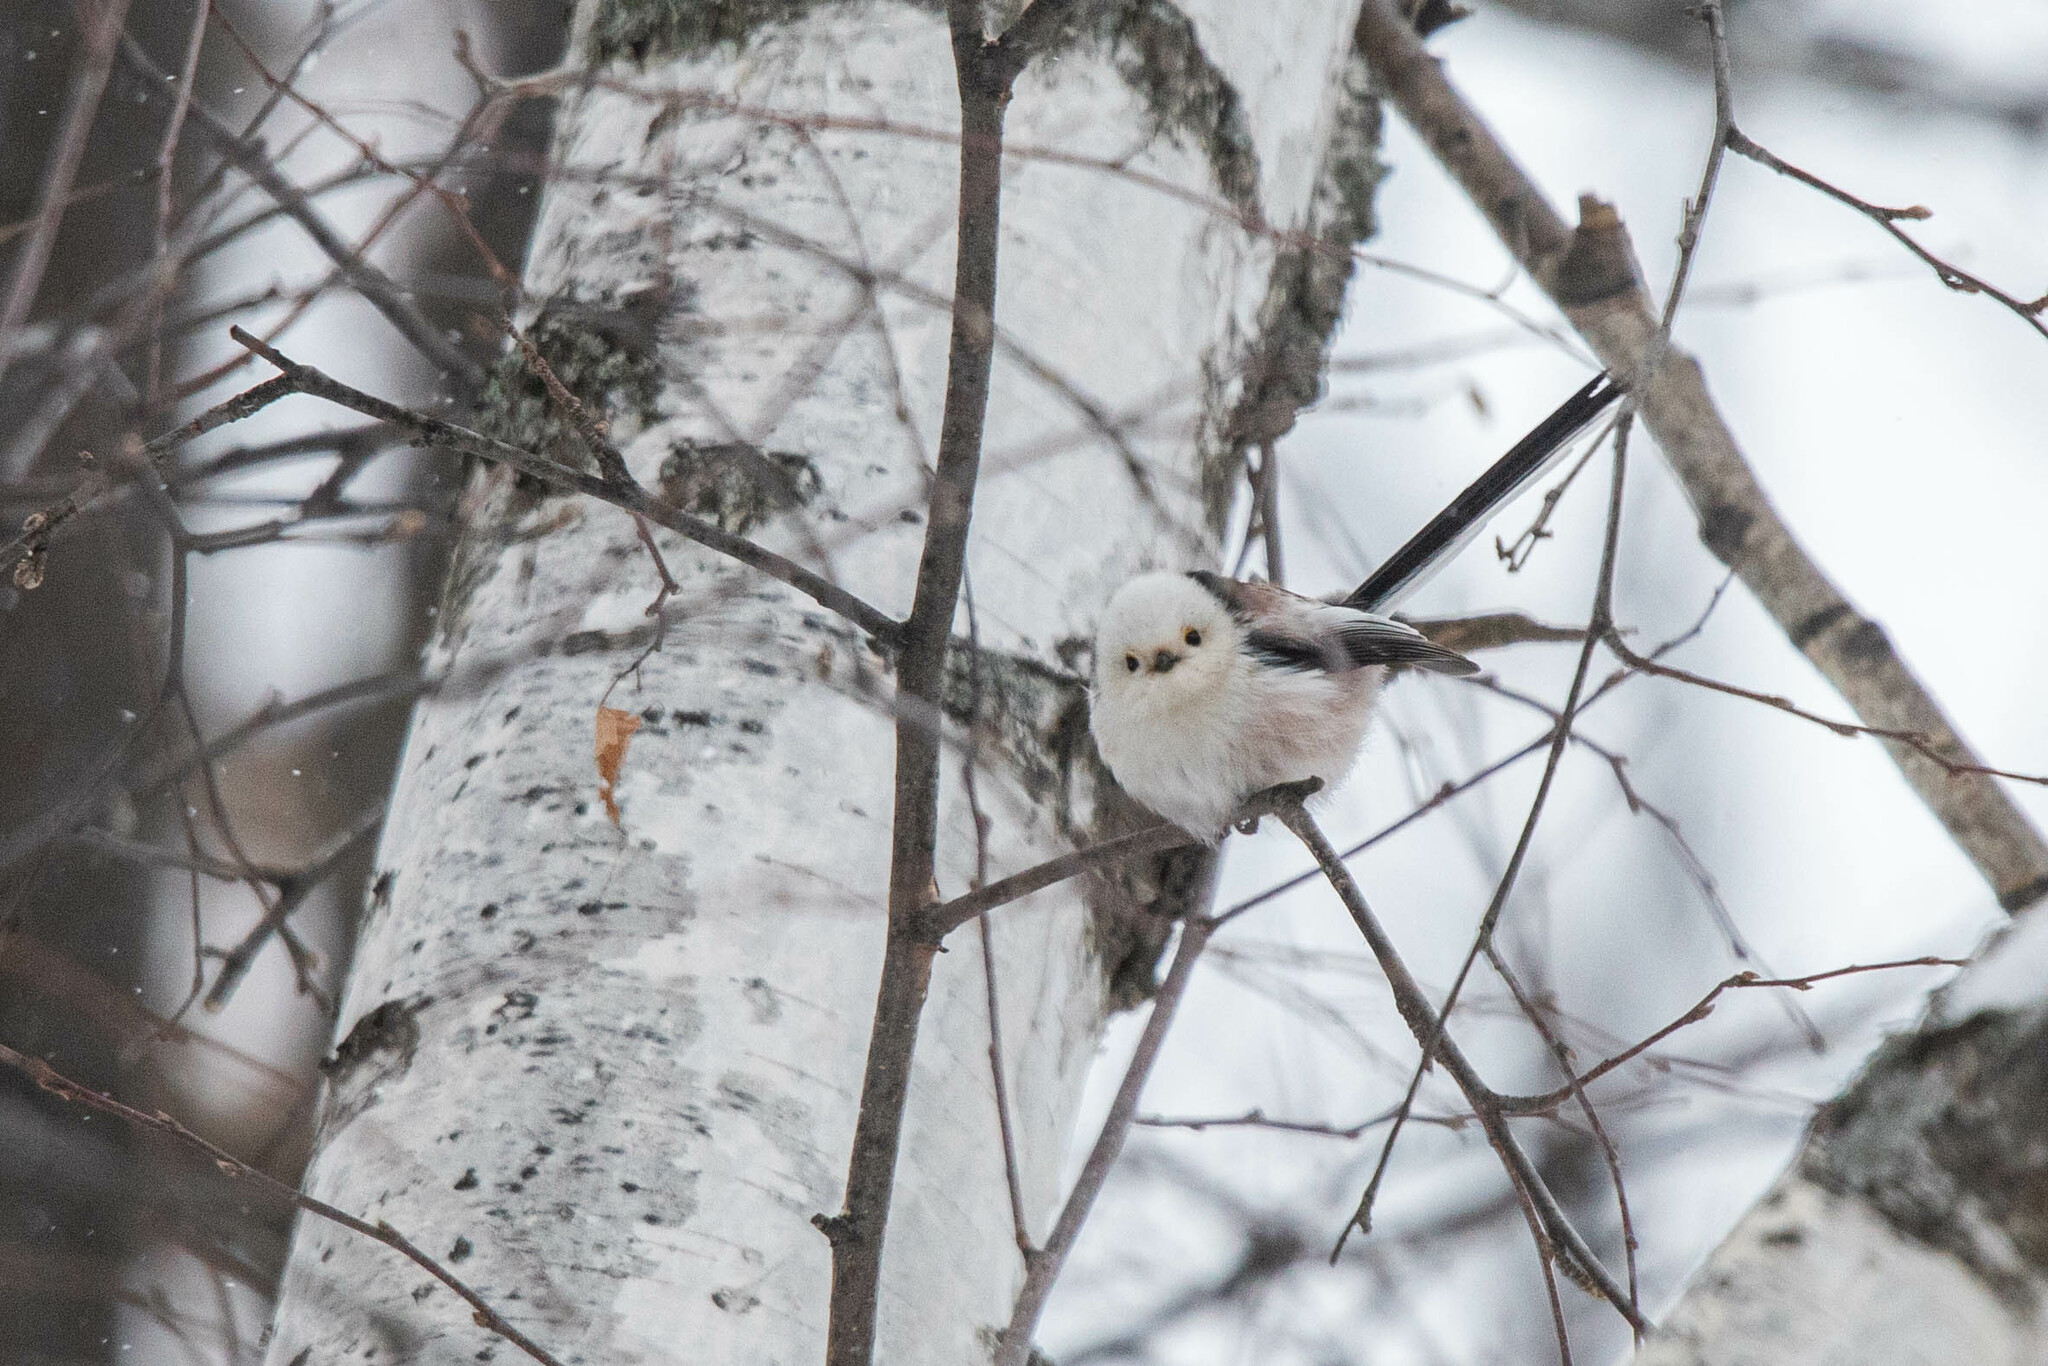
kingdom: Animalia
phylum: Chordata
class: Aves
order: Passeriformes
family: Aegithalidae
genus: Aegithalos
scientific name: Aegithalos caudatus
